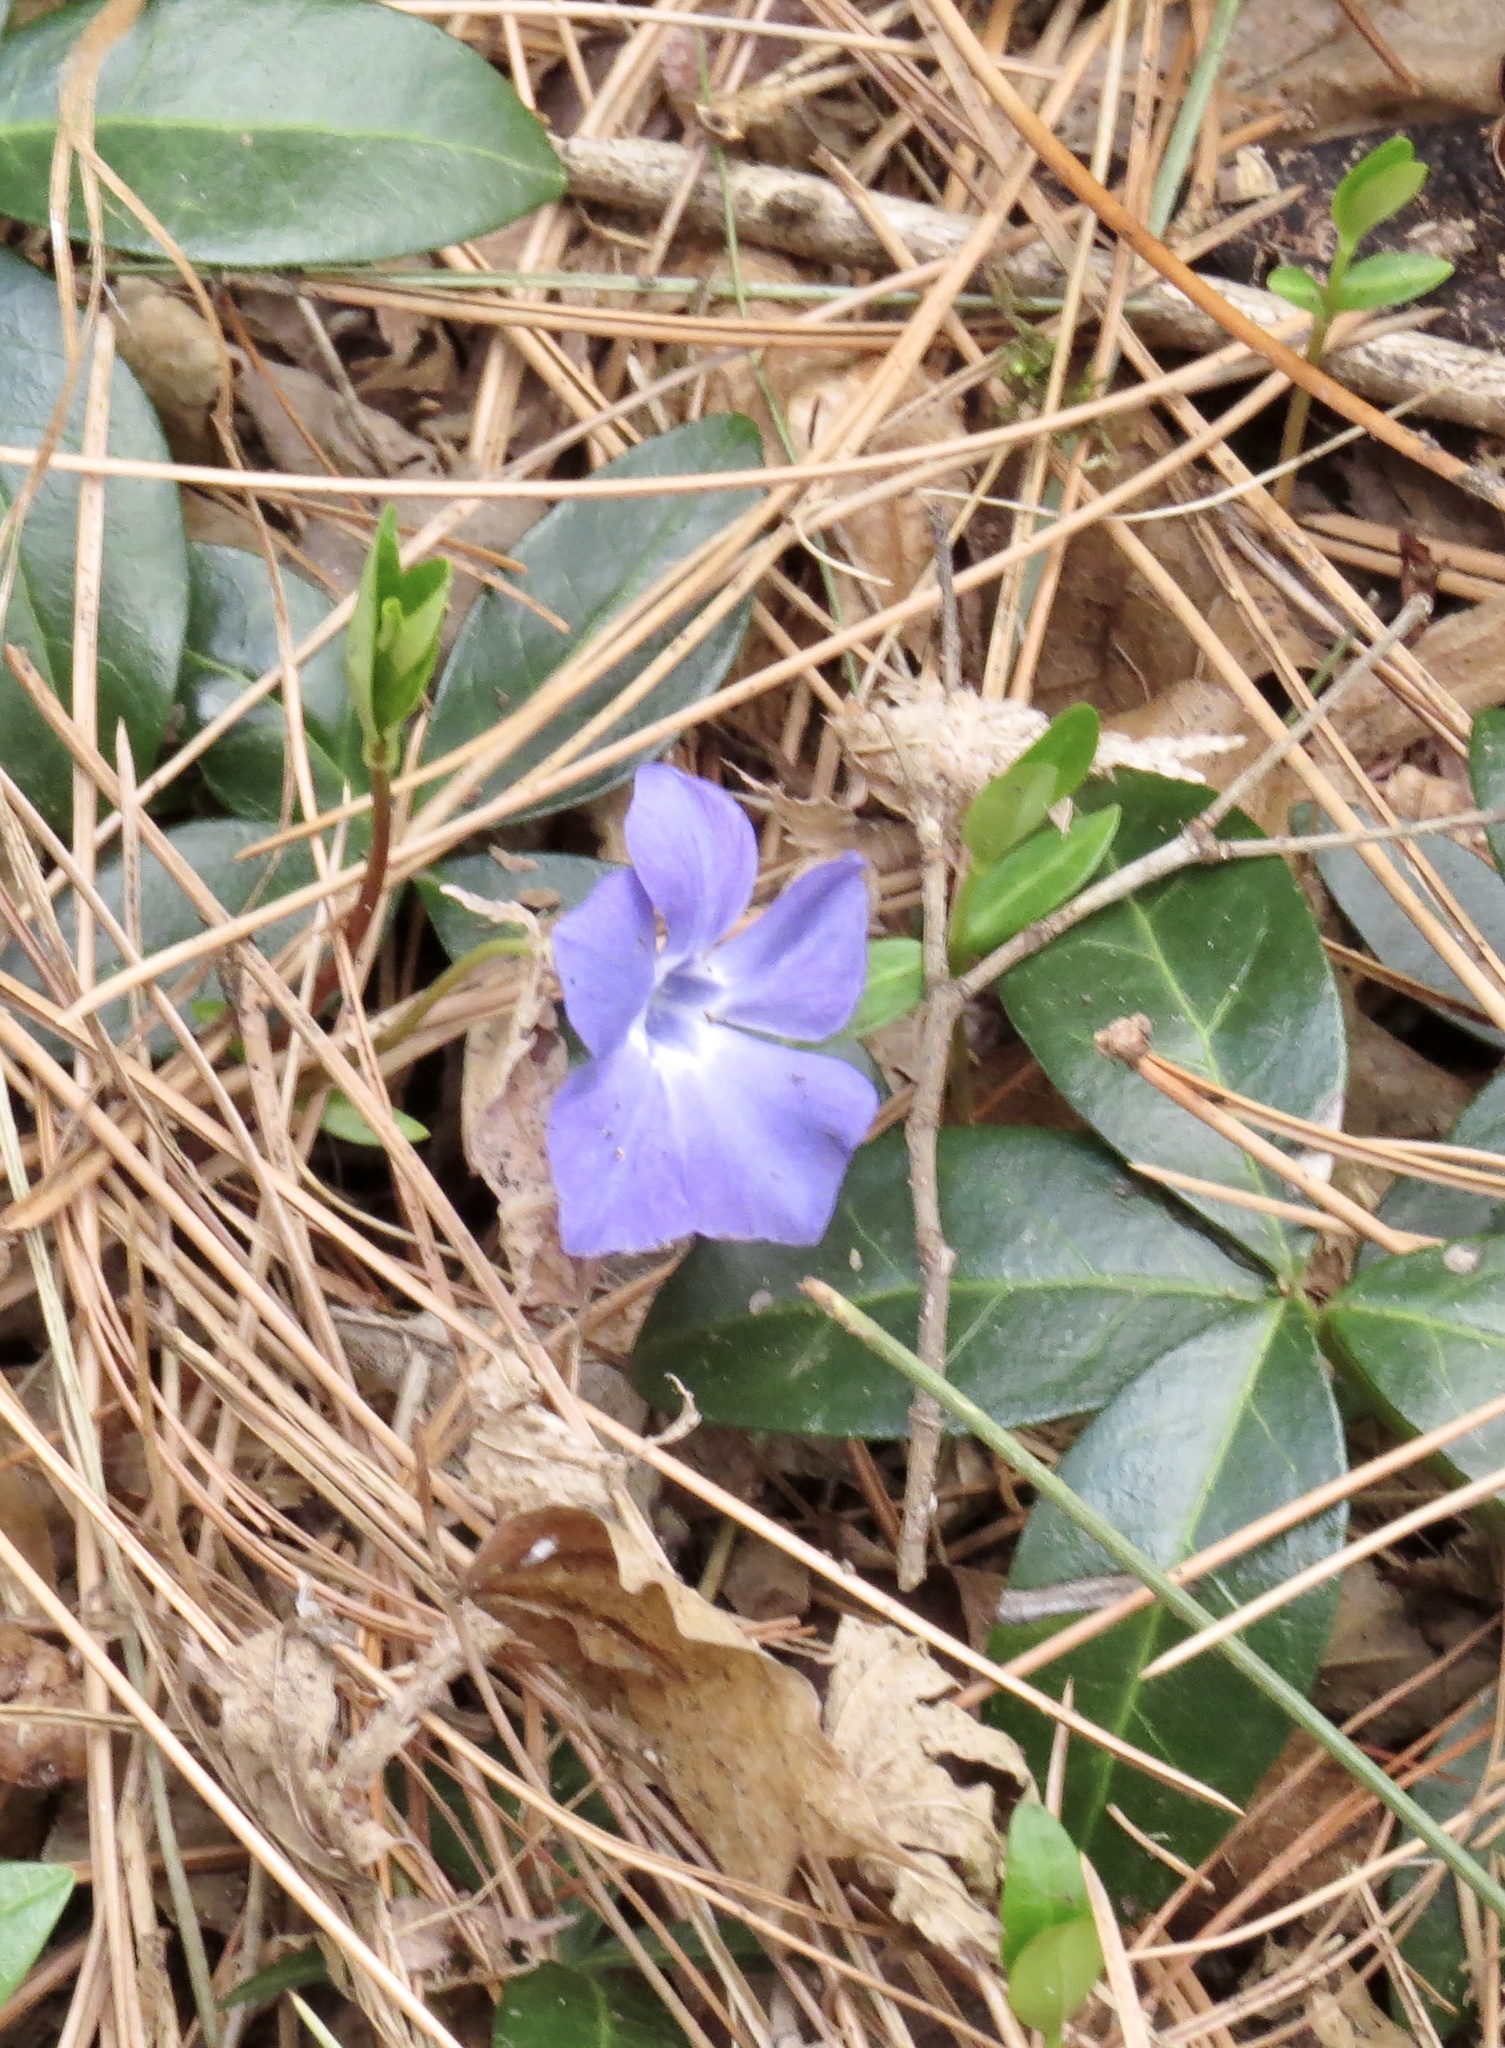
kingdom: Plantae
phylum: Tracheophyta
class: Magnoliopsida
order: Gentianales
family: Apocynaceae
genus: Vinca
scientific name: Vinca minor
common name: Lesser periwinkle
